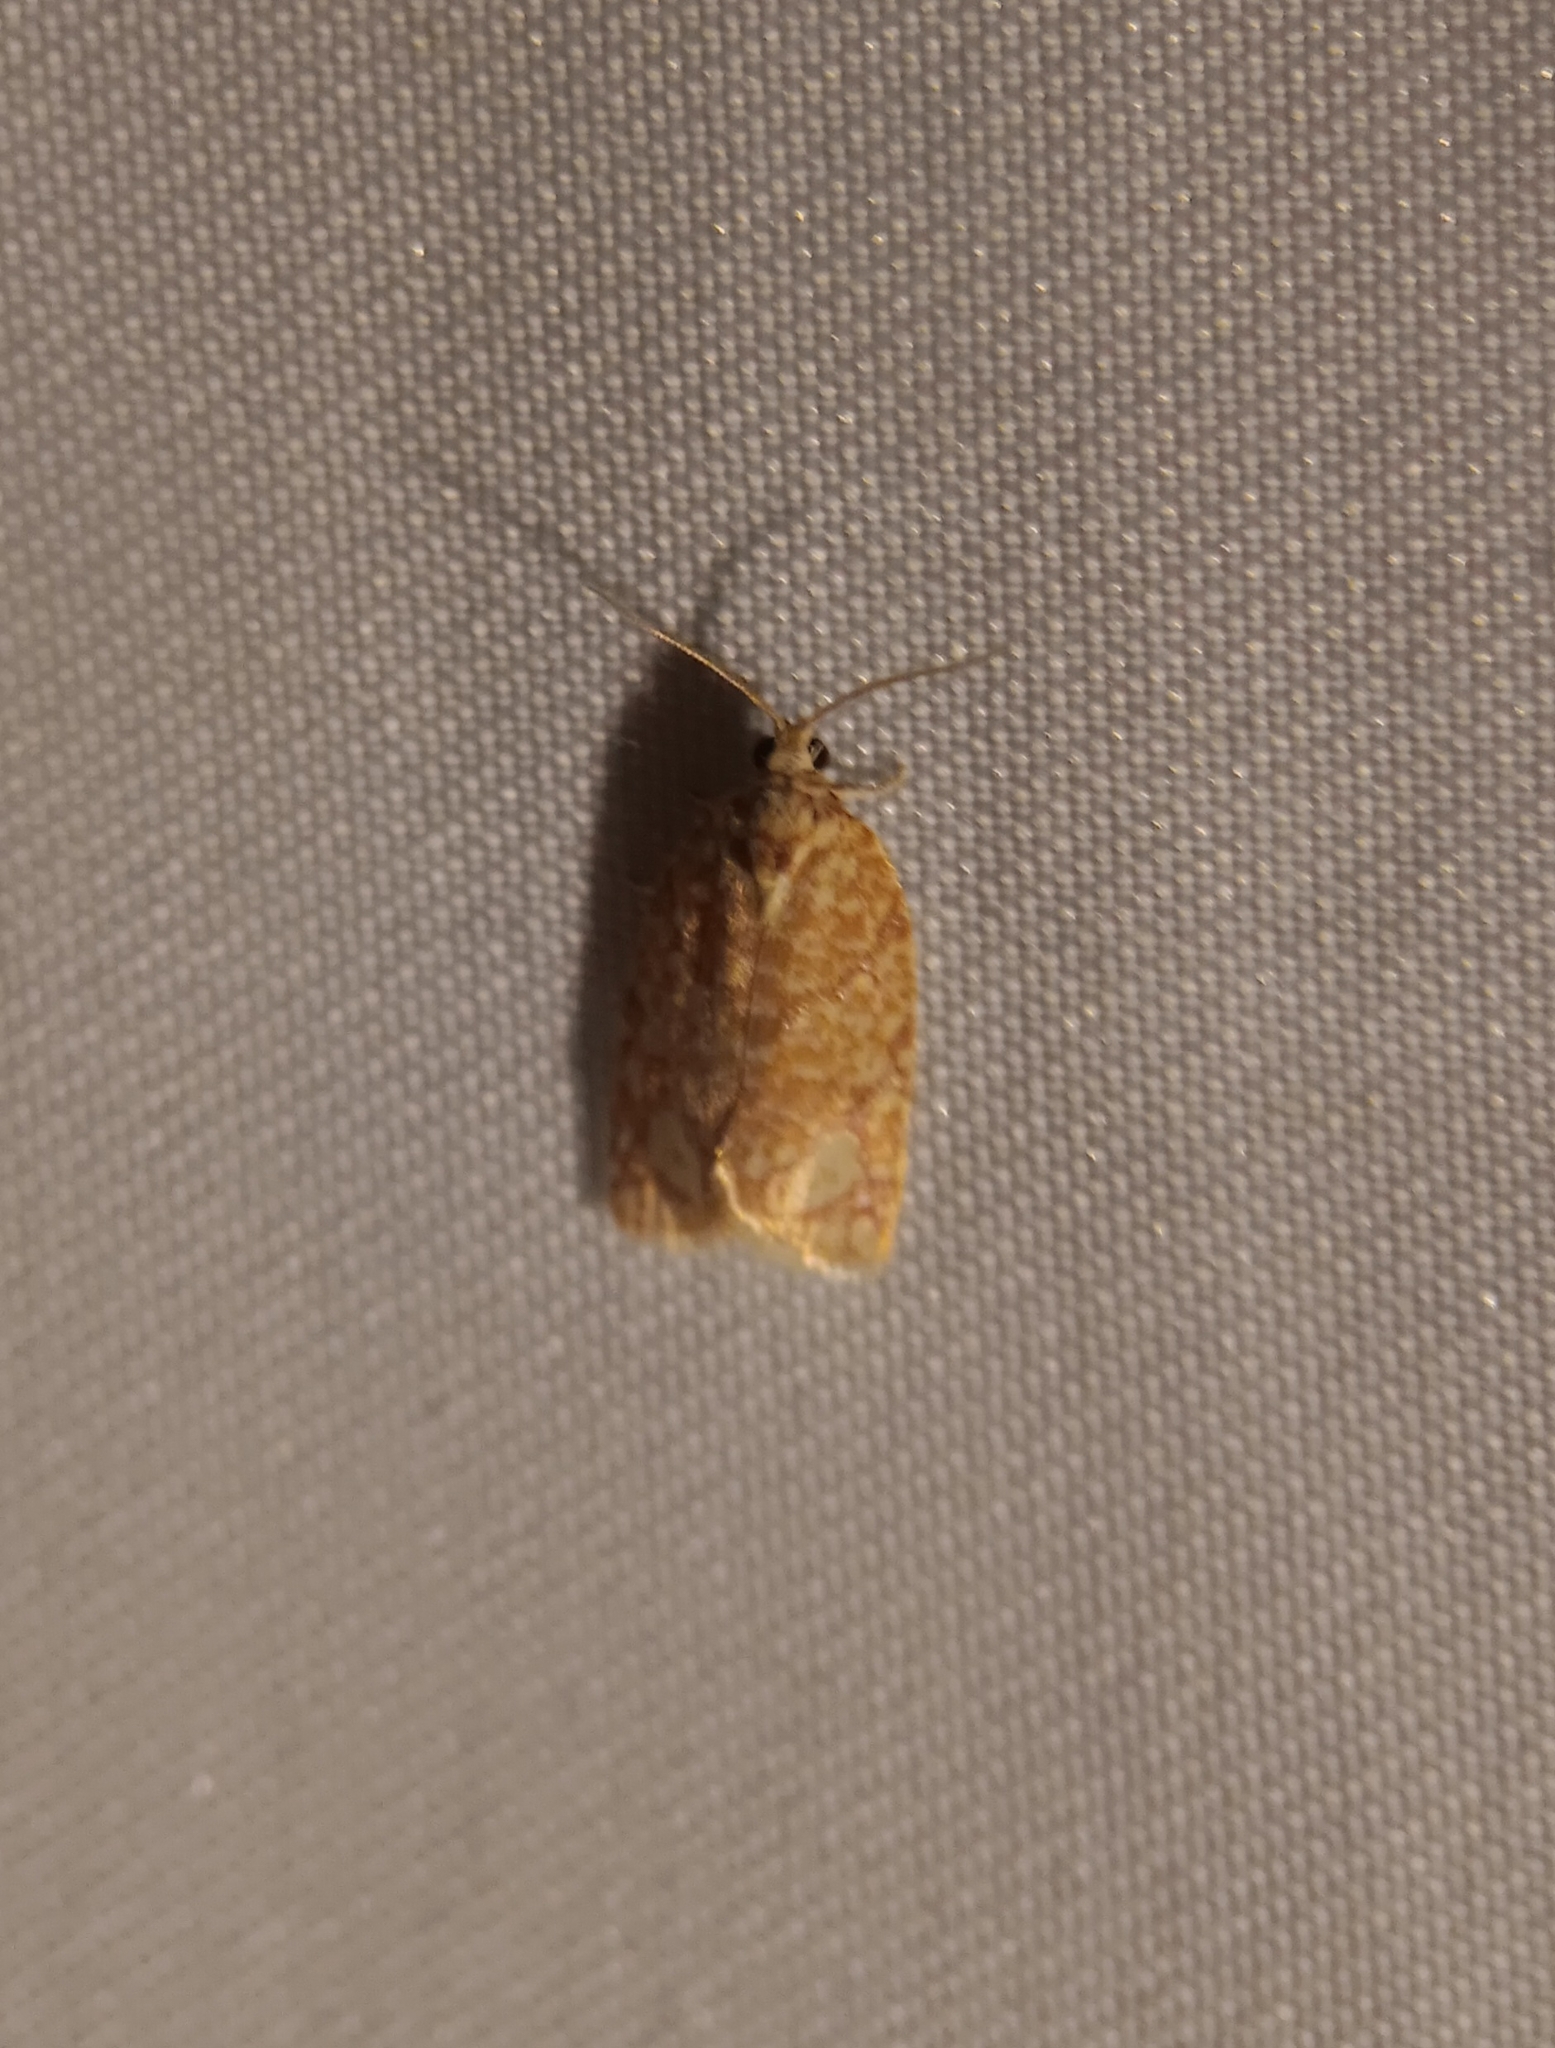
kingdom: Animalia
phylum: Arthropoda
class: Insecta
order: Lepidoptera
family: Tortricidae
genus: Argyrotaenia
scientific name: Argyrotaenia quercifoliana
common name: Yellow-winged oak leafroller moth
